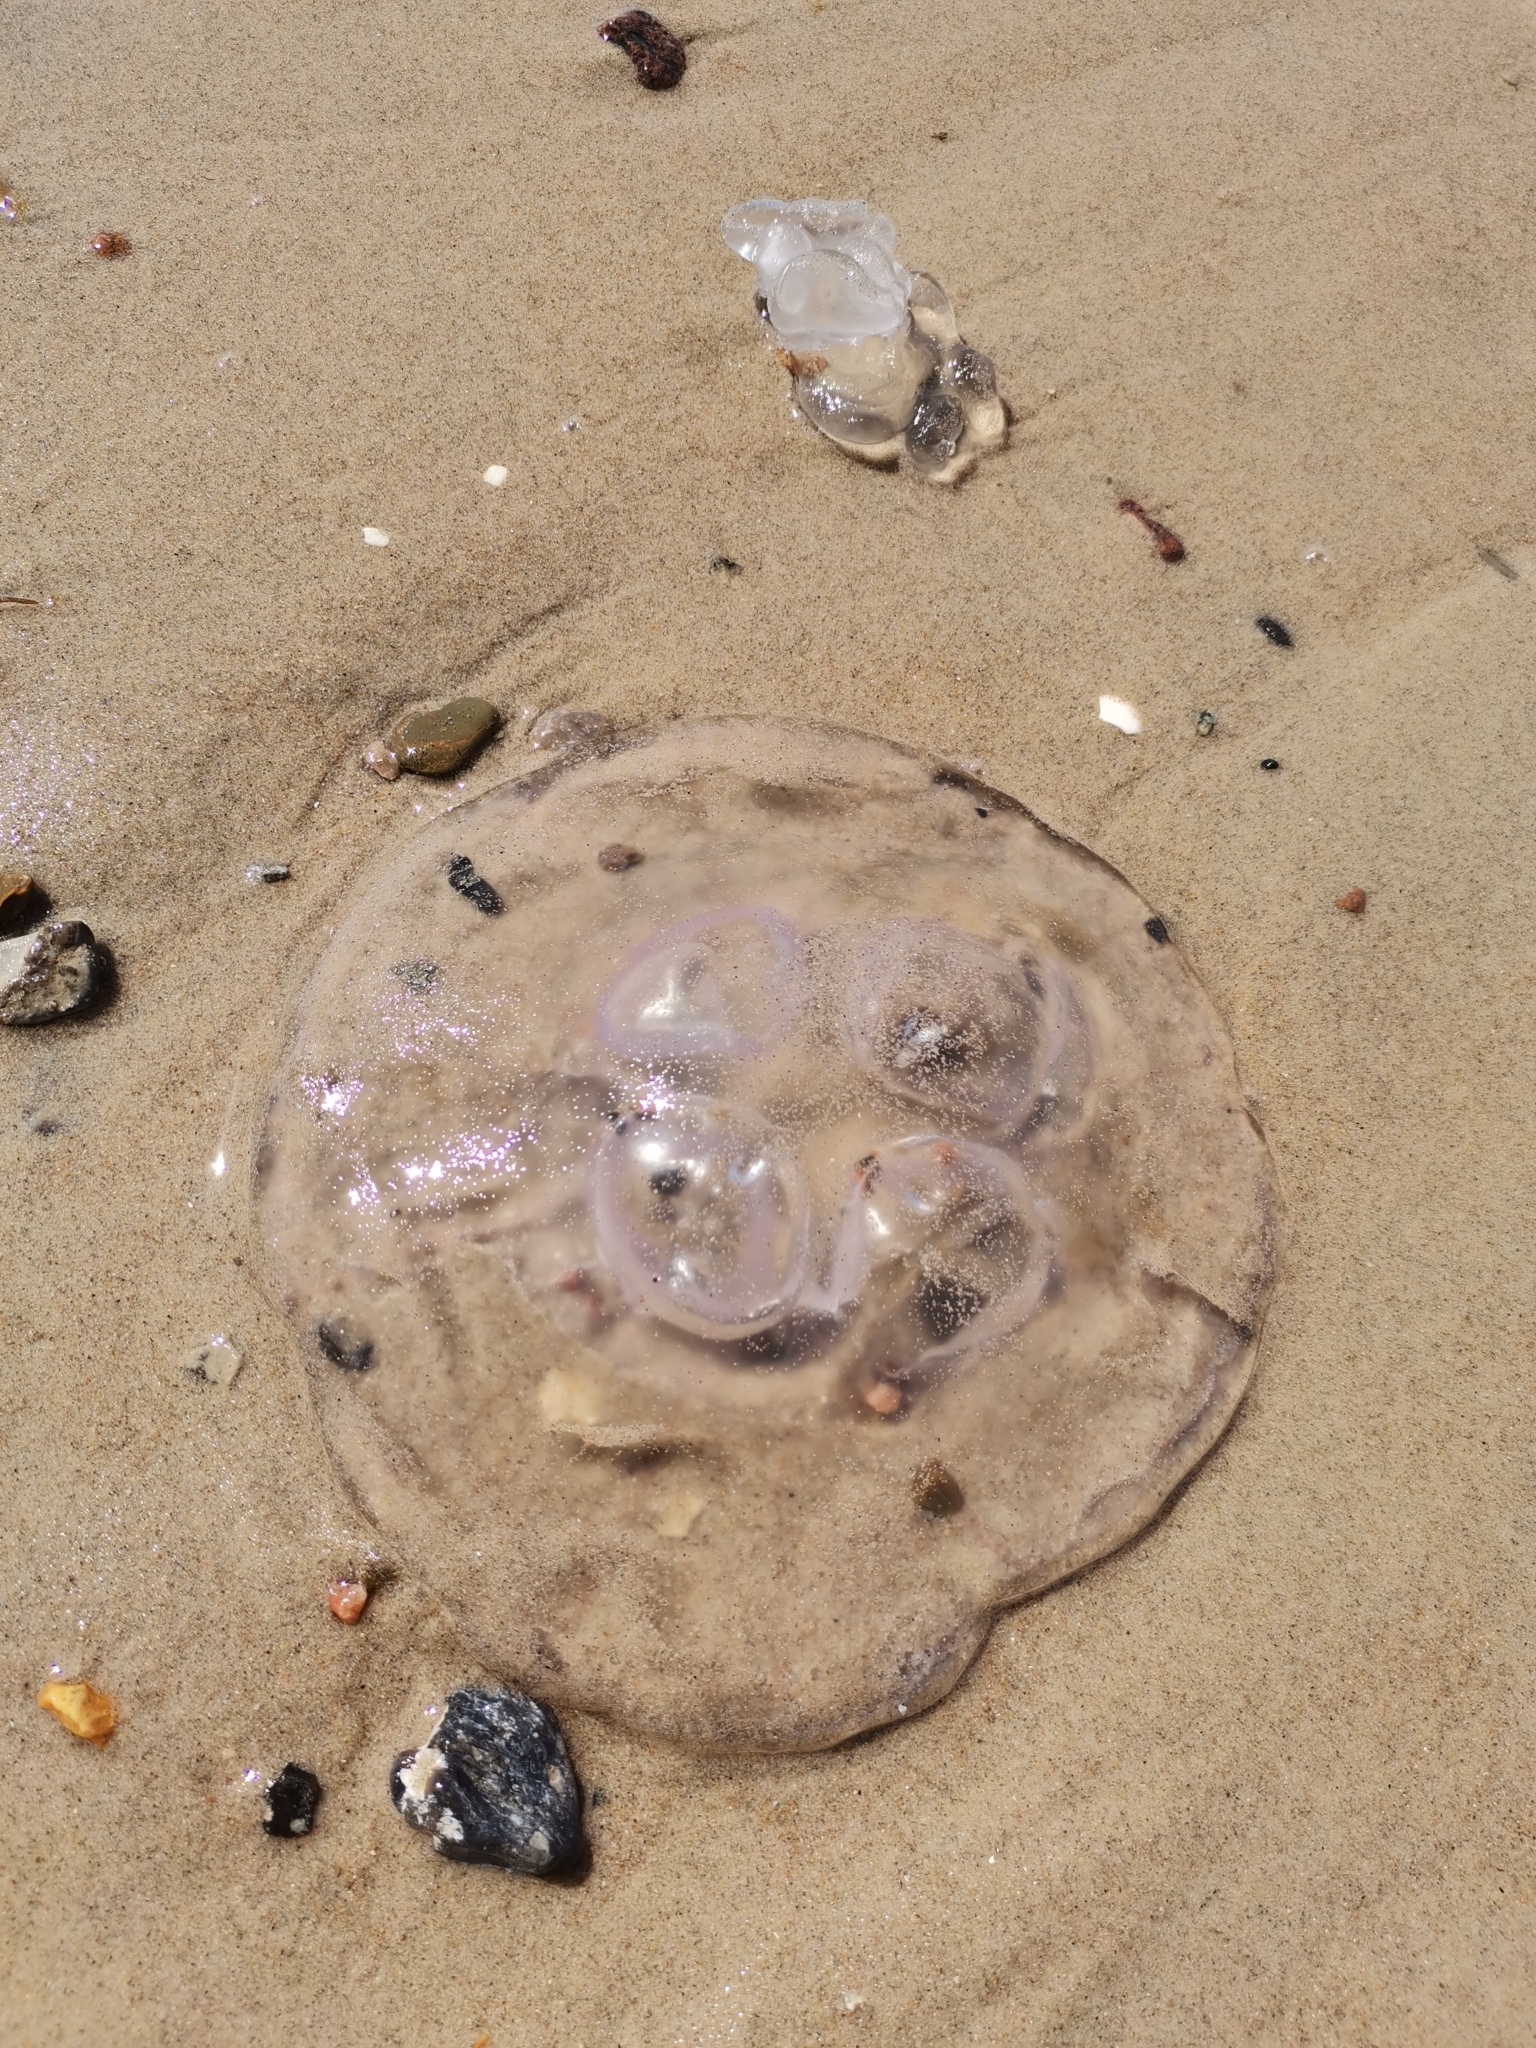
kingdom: Animalia
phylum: Cnidaria
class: Scyphozoa
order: Semaeostomeae
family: Ulmaridae
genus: Aurelia
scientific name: Aurelia aurita
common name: Moon jellyfish
